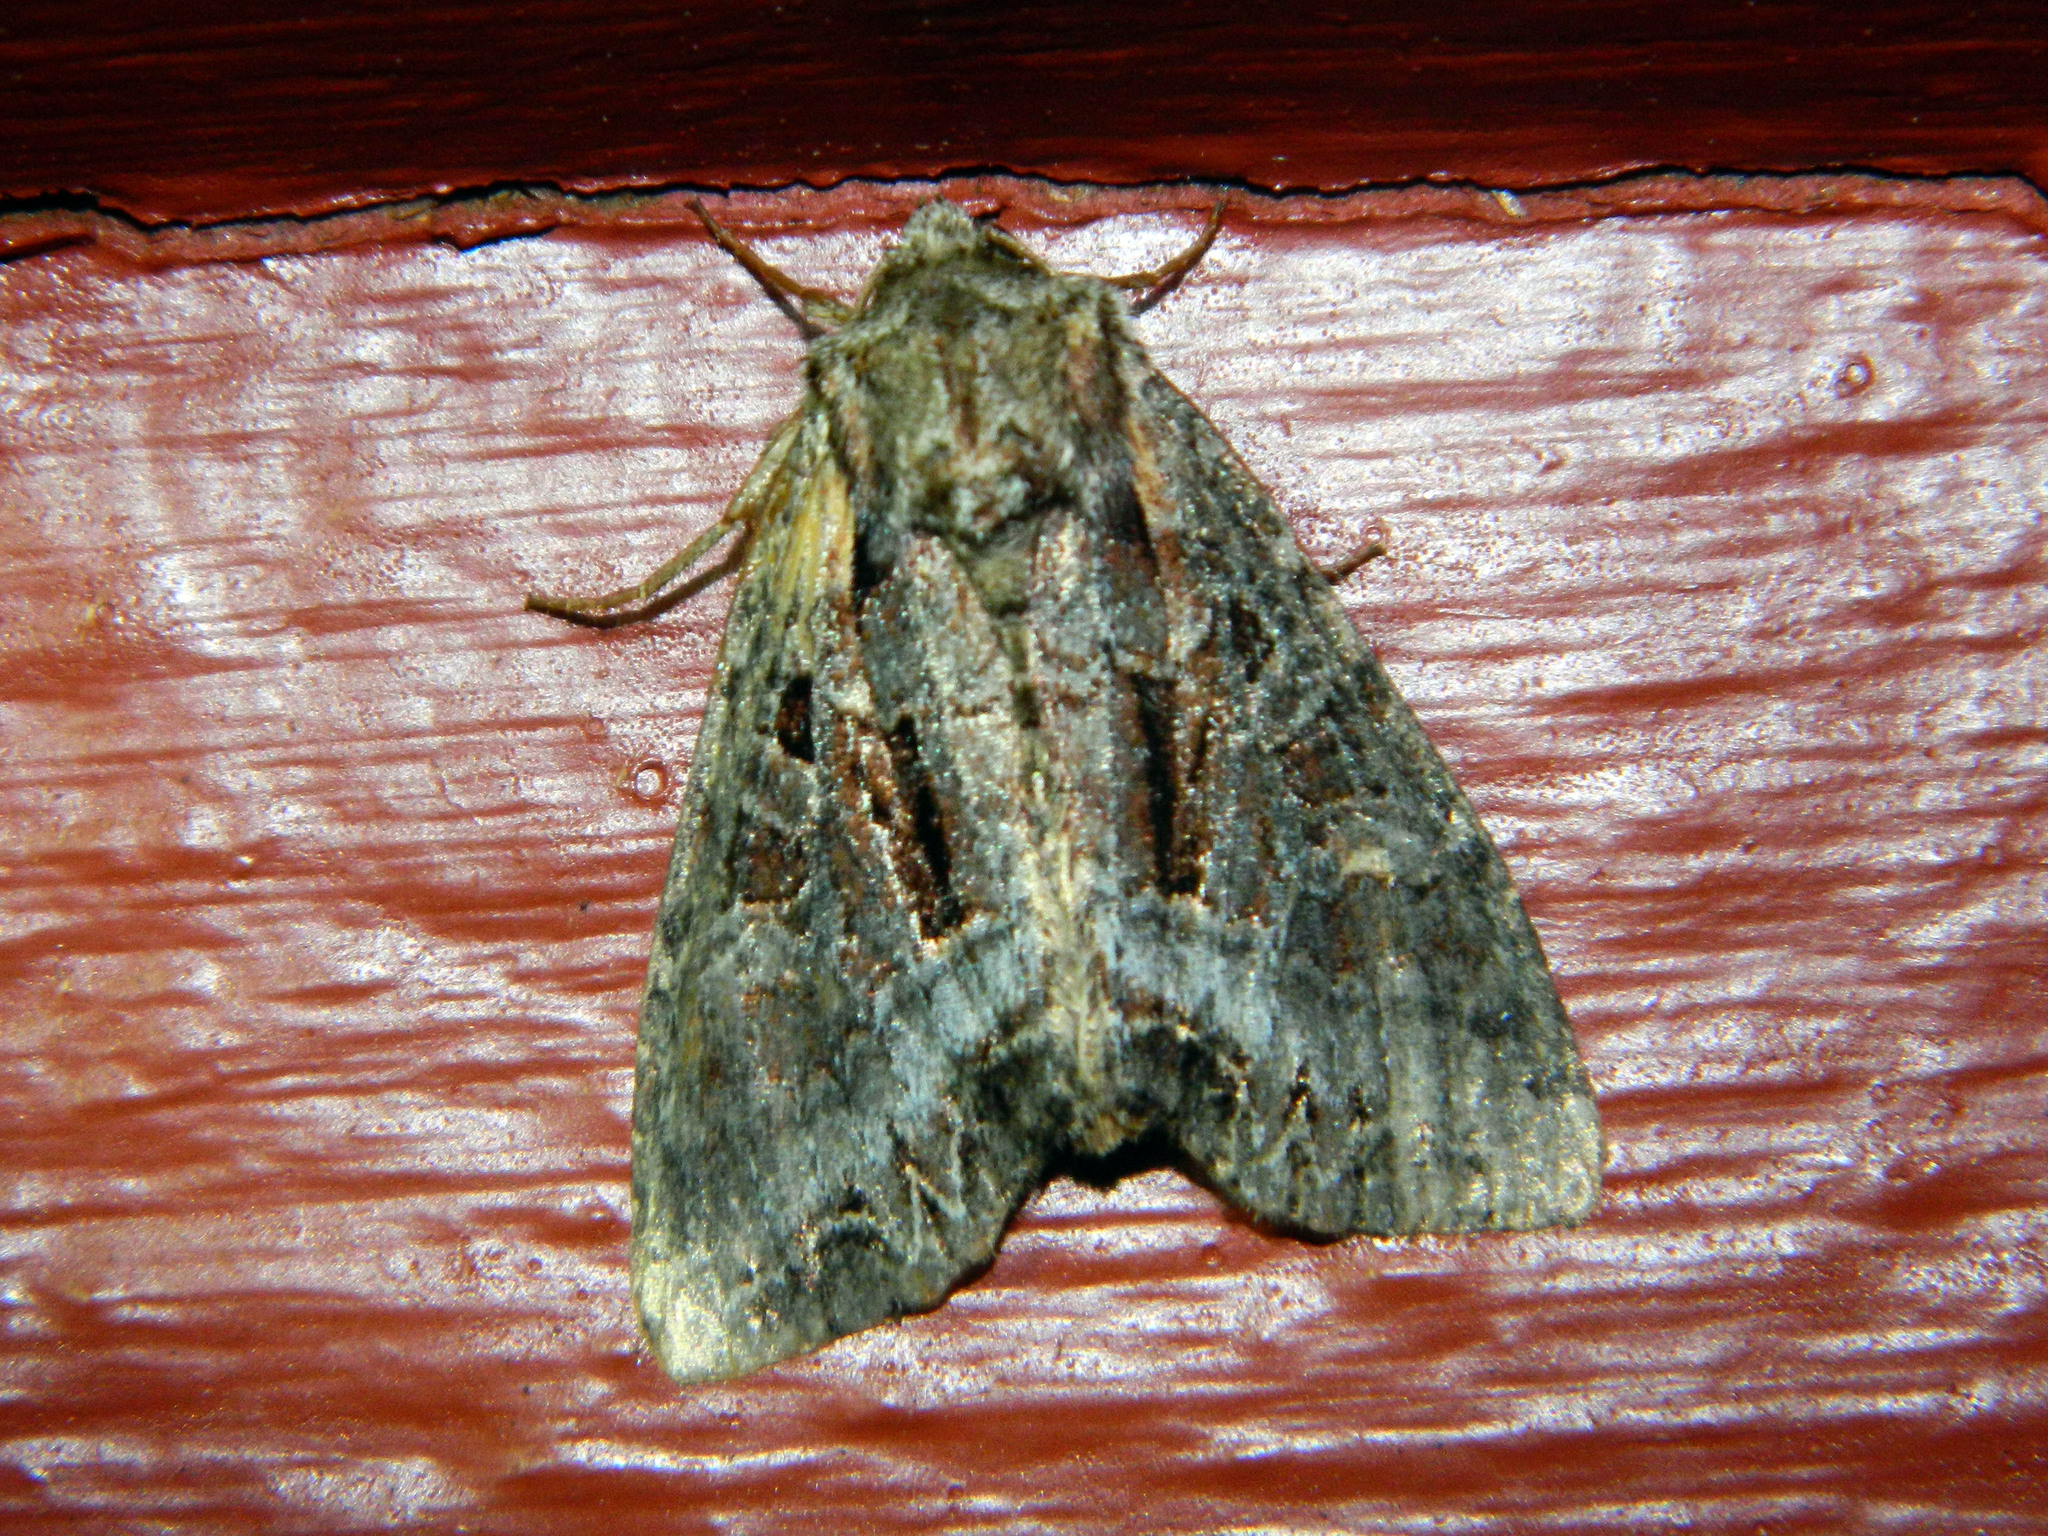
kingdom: Animalia
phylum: Arthropoda
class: Insecta
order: Lepidoptera
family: Noctuidae
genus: Lacanobia
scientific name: Lacanobia grandis
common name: Grand arches moth
